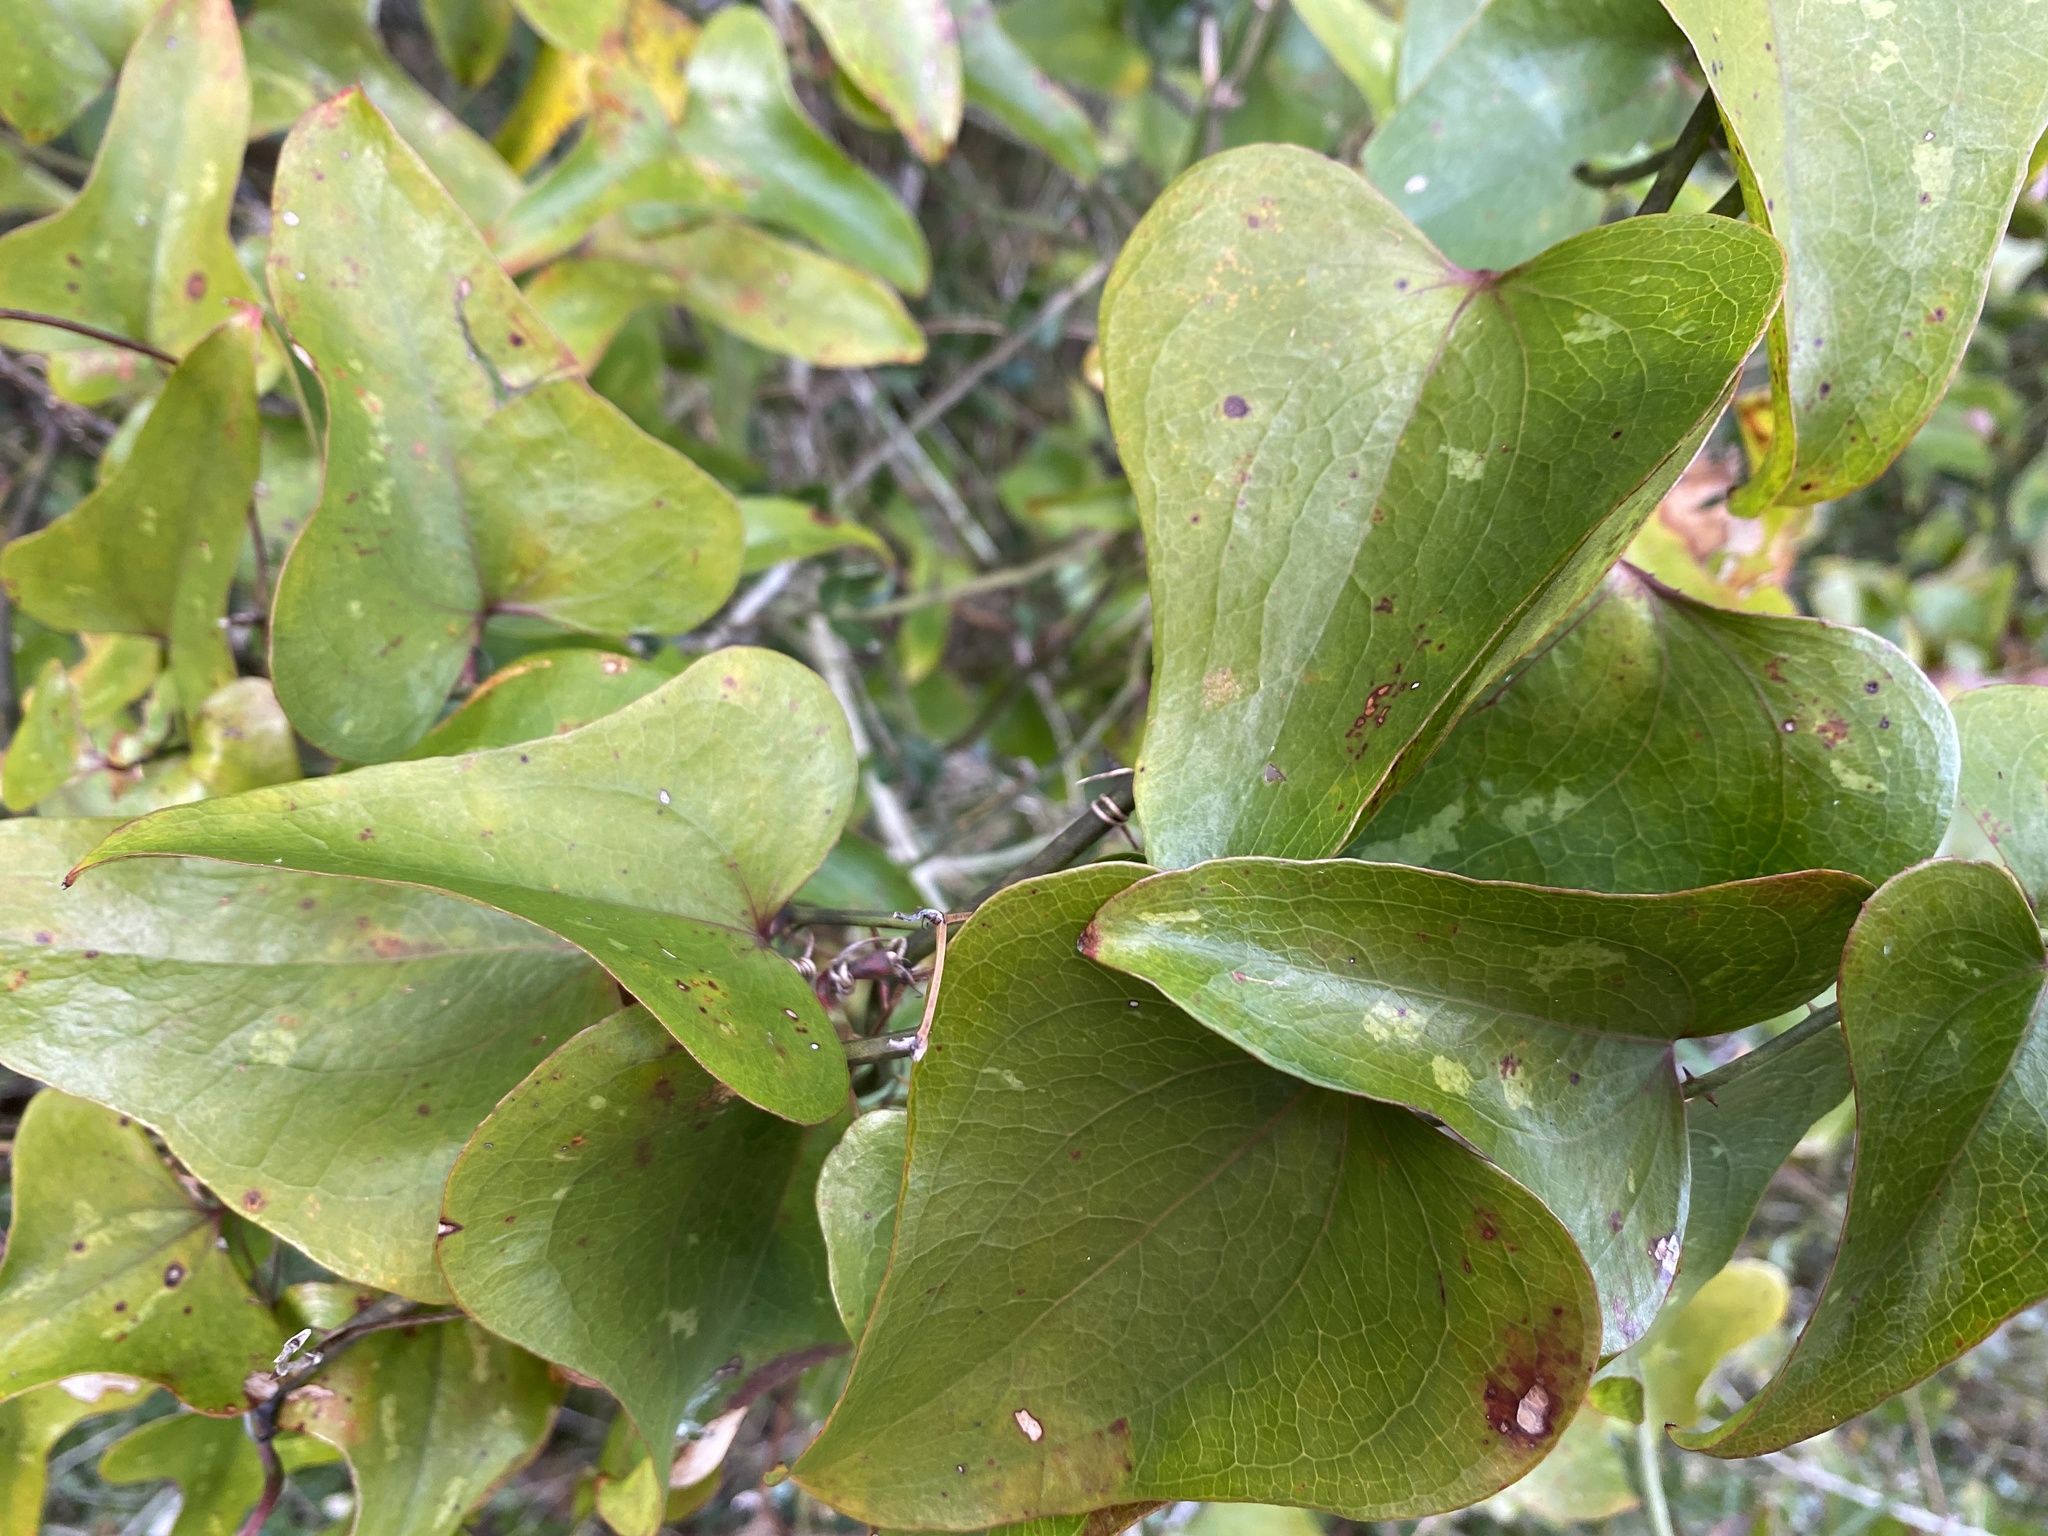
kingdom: Plantae
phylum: Tracheophyta
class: Liliopsida
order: Liliales
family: Smilacaceae
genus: Smilax
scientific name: Smilax bona-nox
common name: Catbrier
